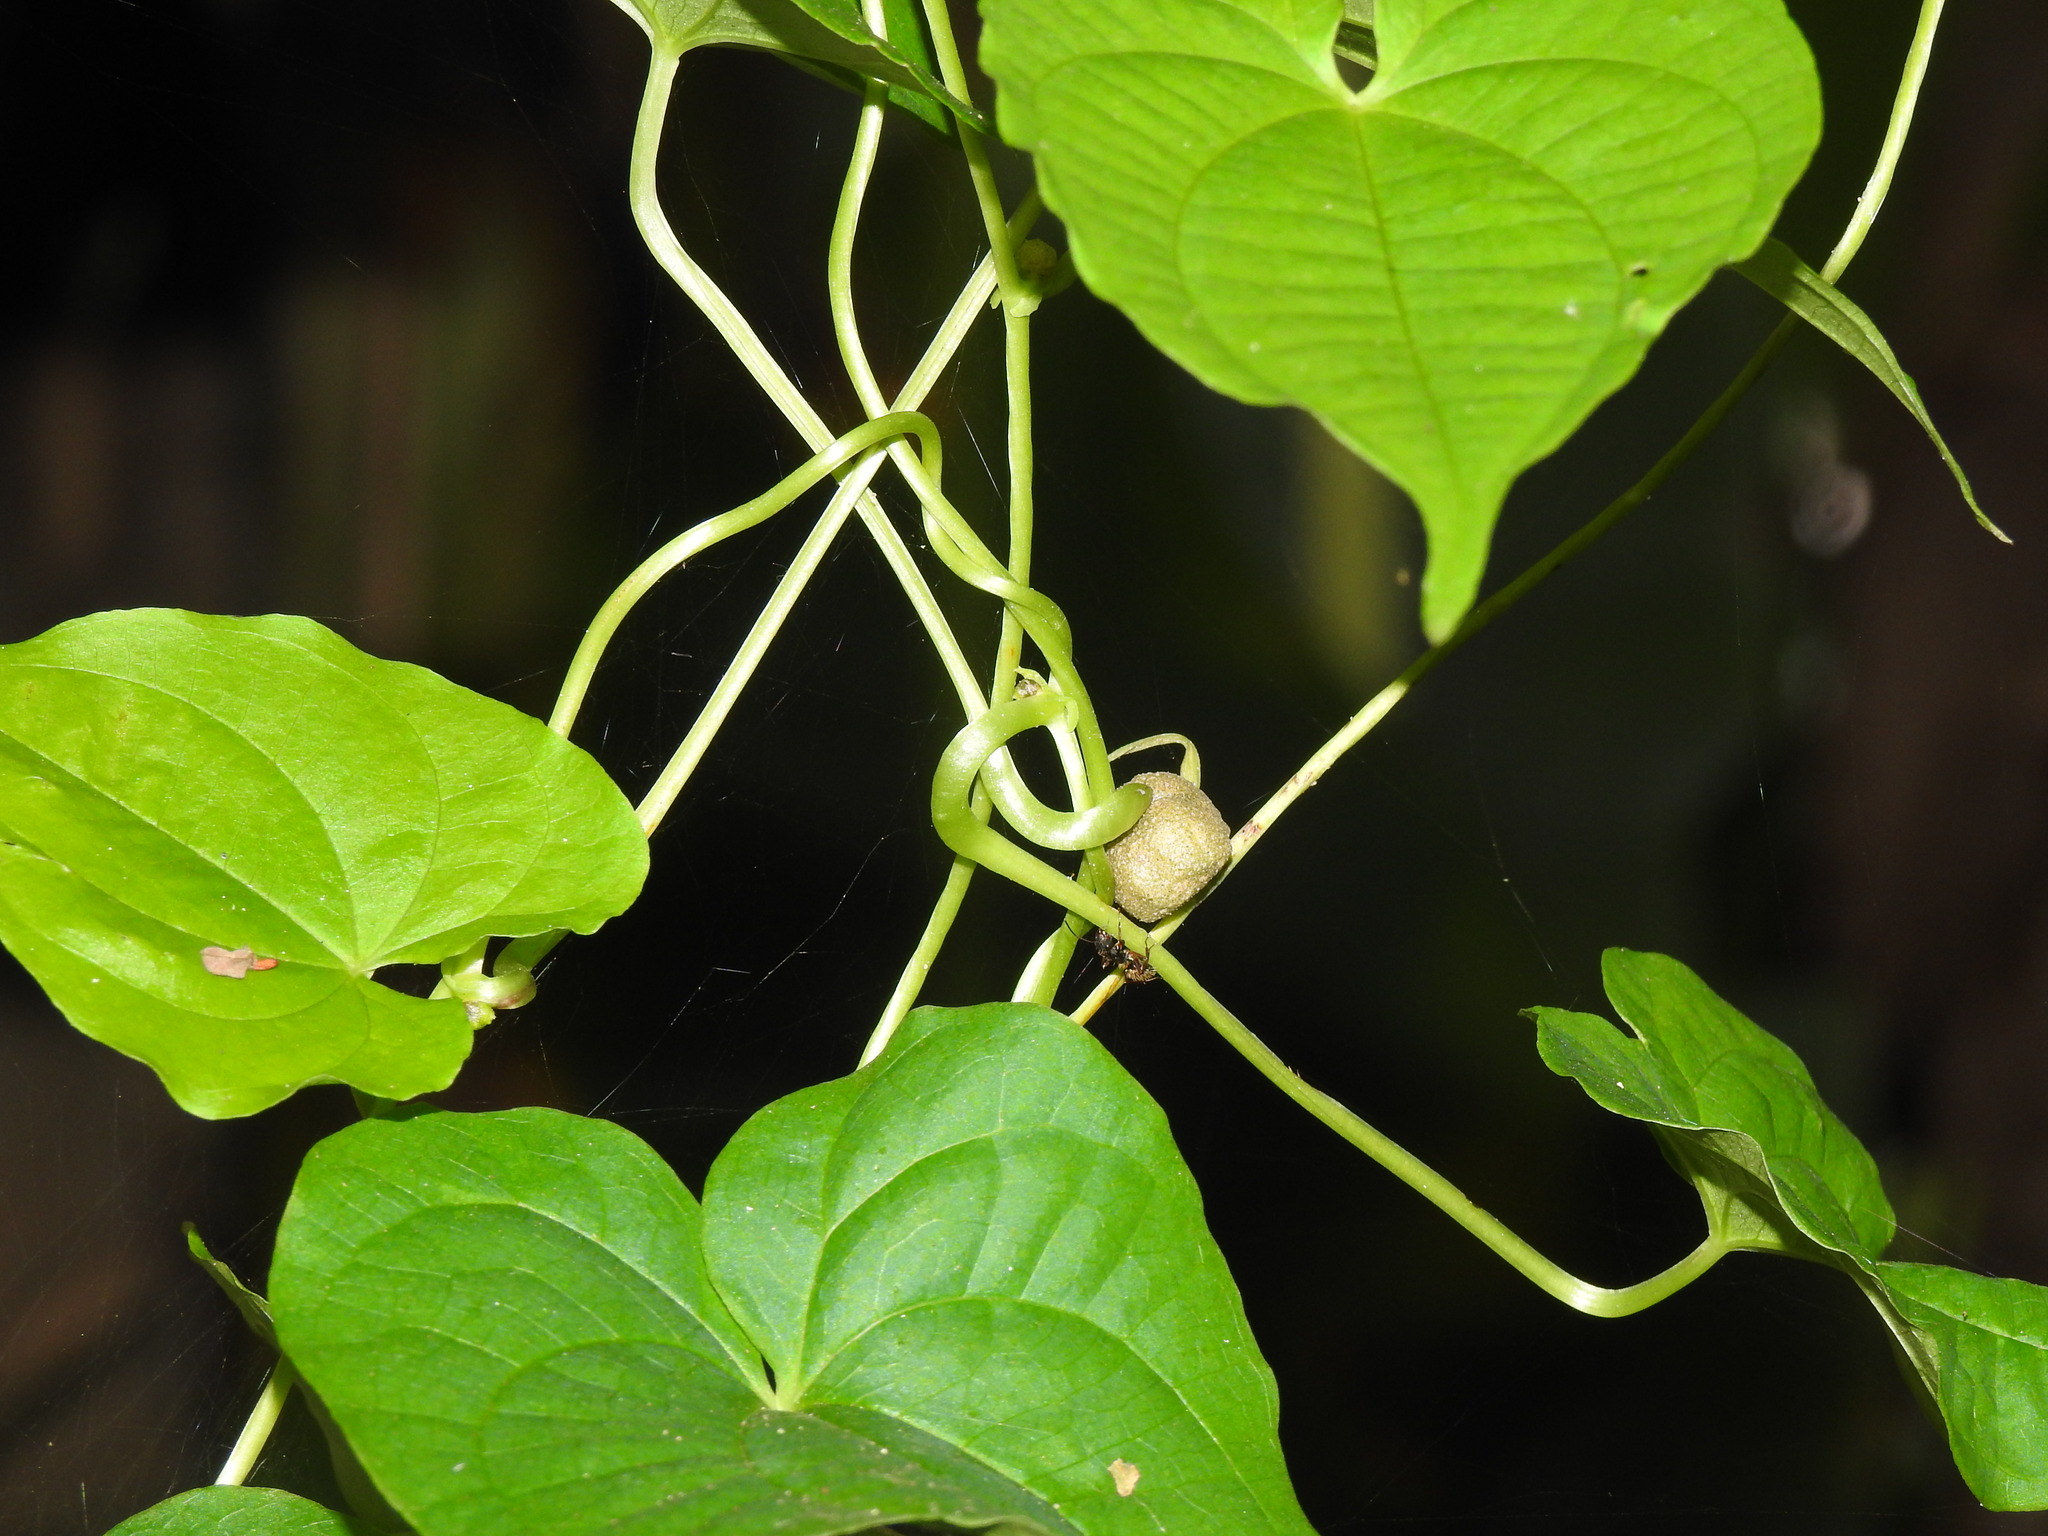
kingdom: Plantae
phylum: Tracheophyta
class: Liliopsida
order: Dioscoreales
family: Dioscoreaceae
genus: Dioscorea
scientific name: Dioscorea bulbifera
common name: Air yam
